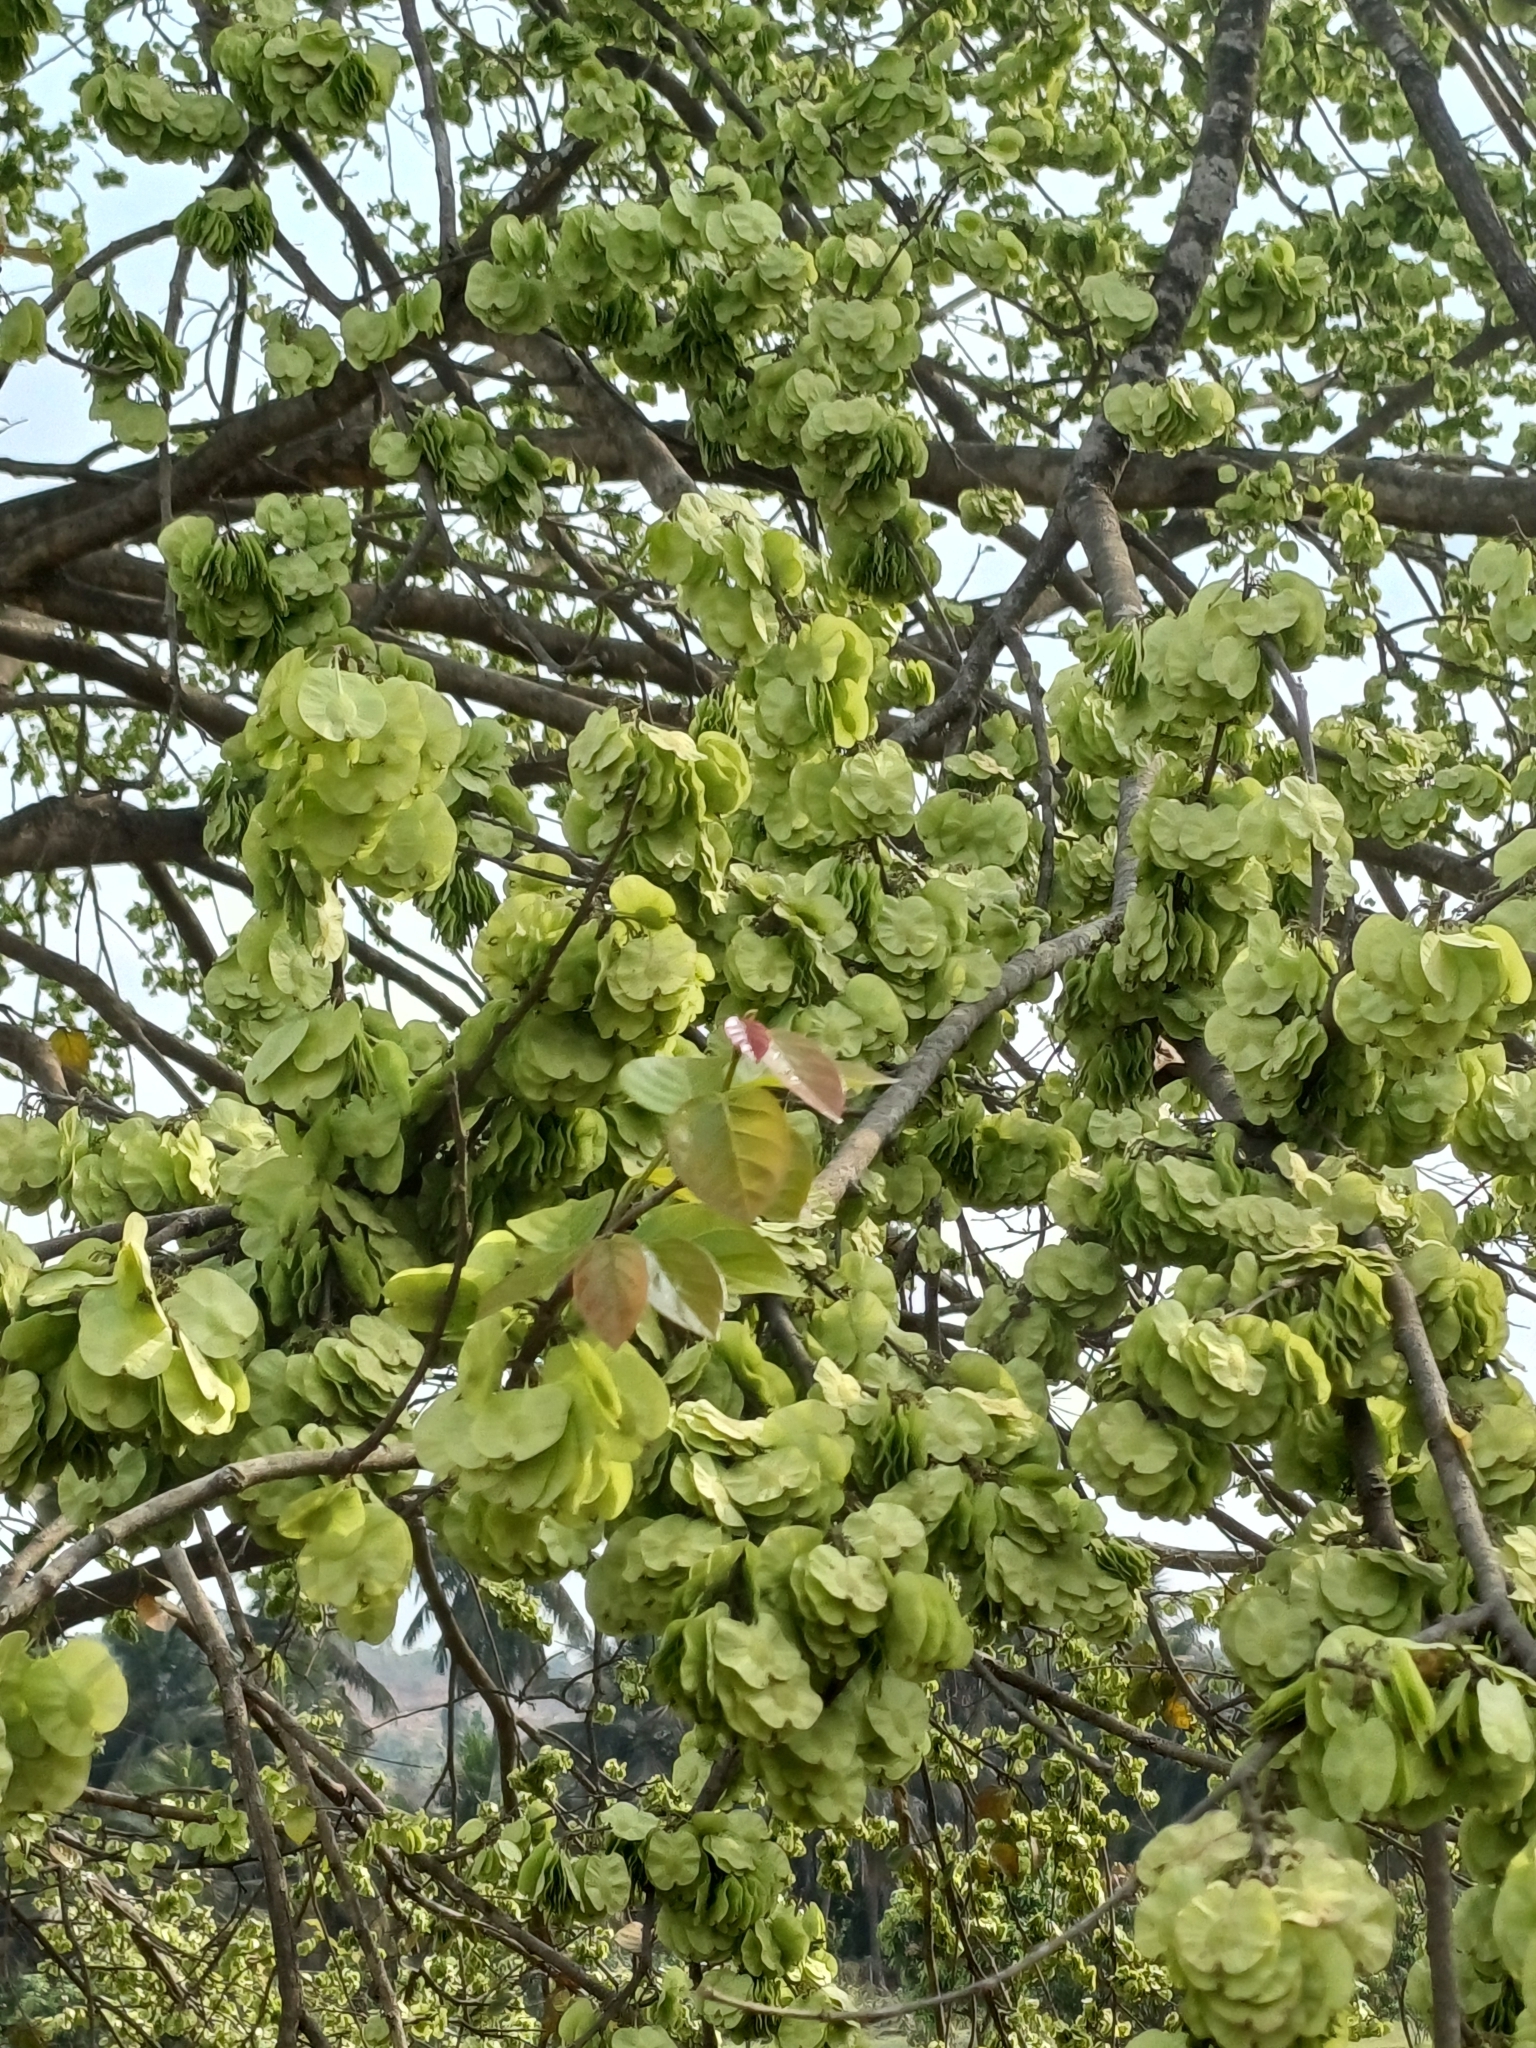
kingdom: Plantae
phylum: Tracheophyta
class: Magnoliopsida
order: Rosales
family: Ulmaceae
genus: Holoptelea
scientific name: Holoptelea integrifolia
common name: Indian-elm
